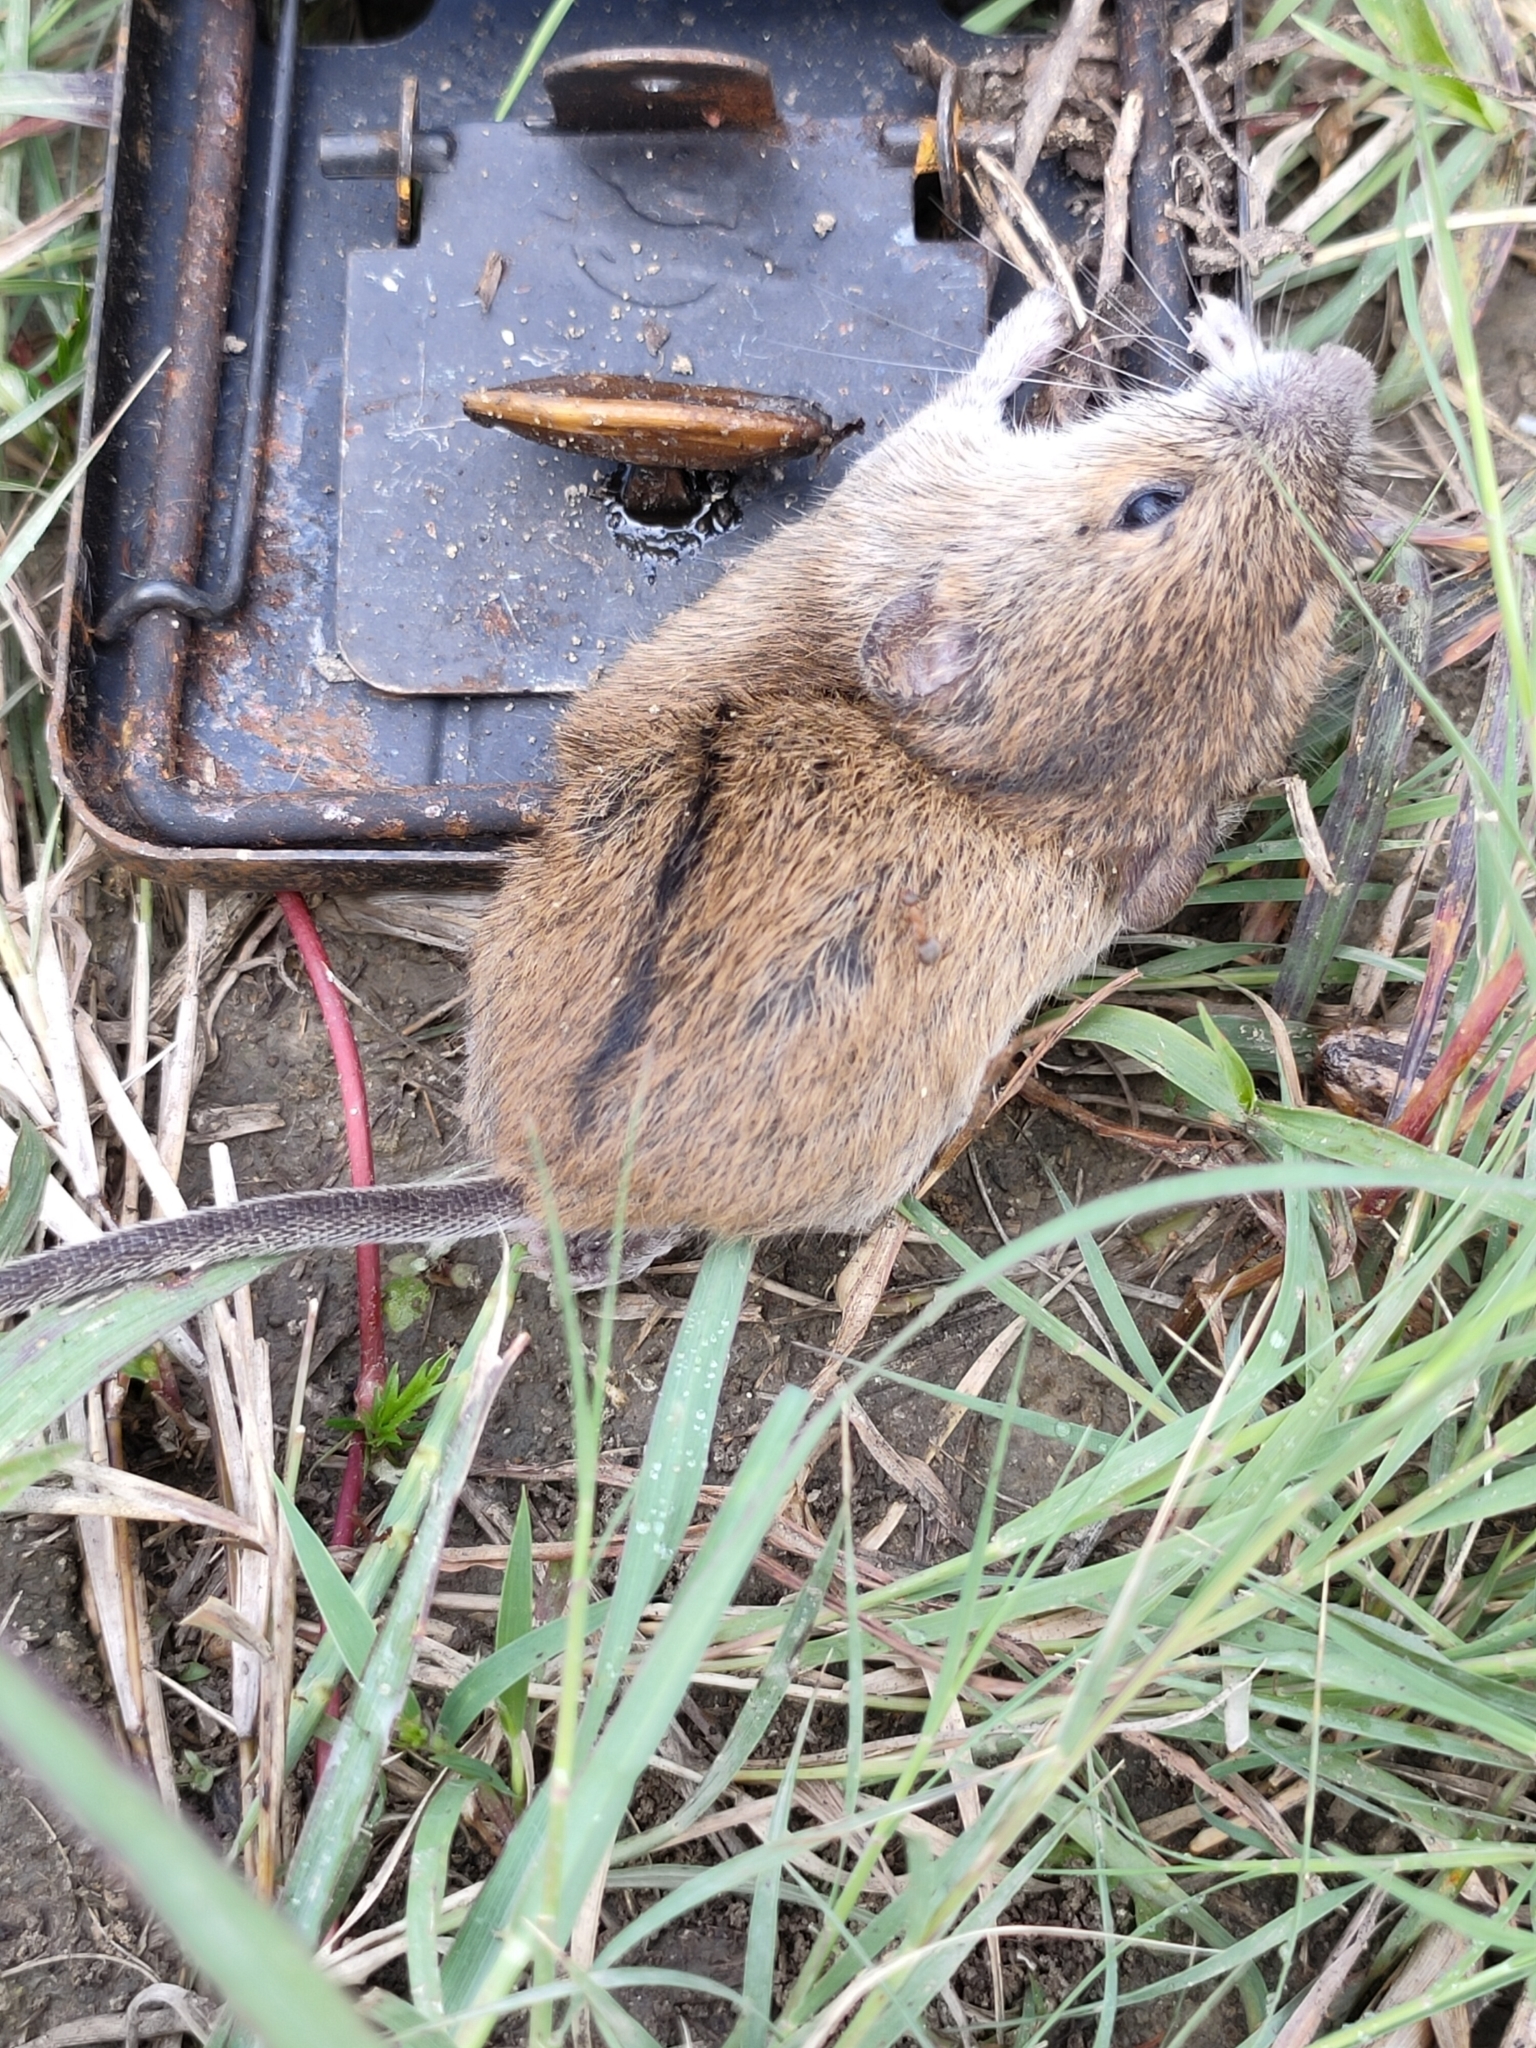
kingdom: Animalia
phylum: Chordata
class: Mammalia
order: Rodentia
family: Muridae
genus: Apodemus
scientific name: Apodemus agrarius
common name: Striped field mouse
